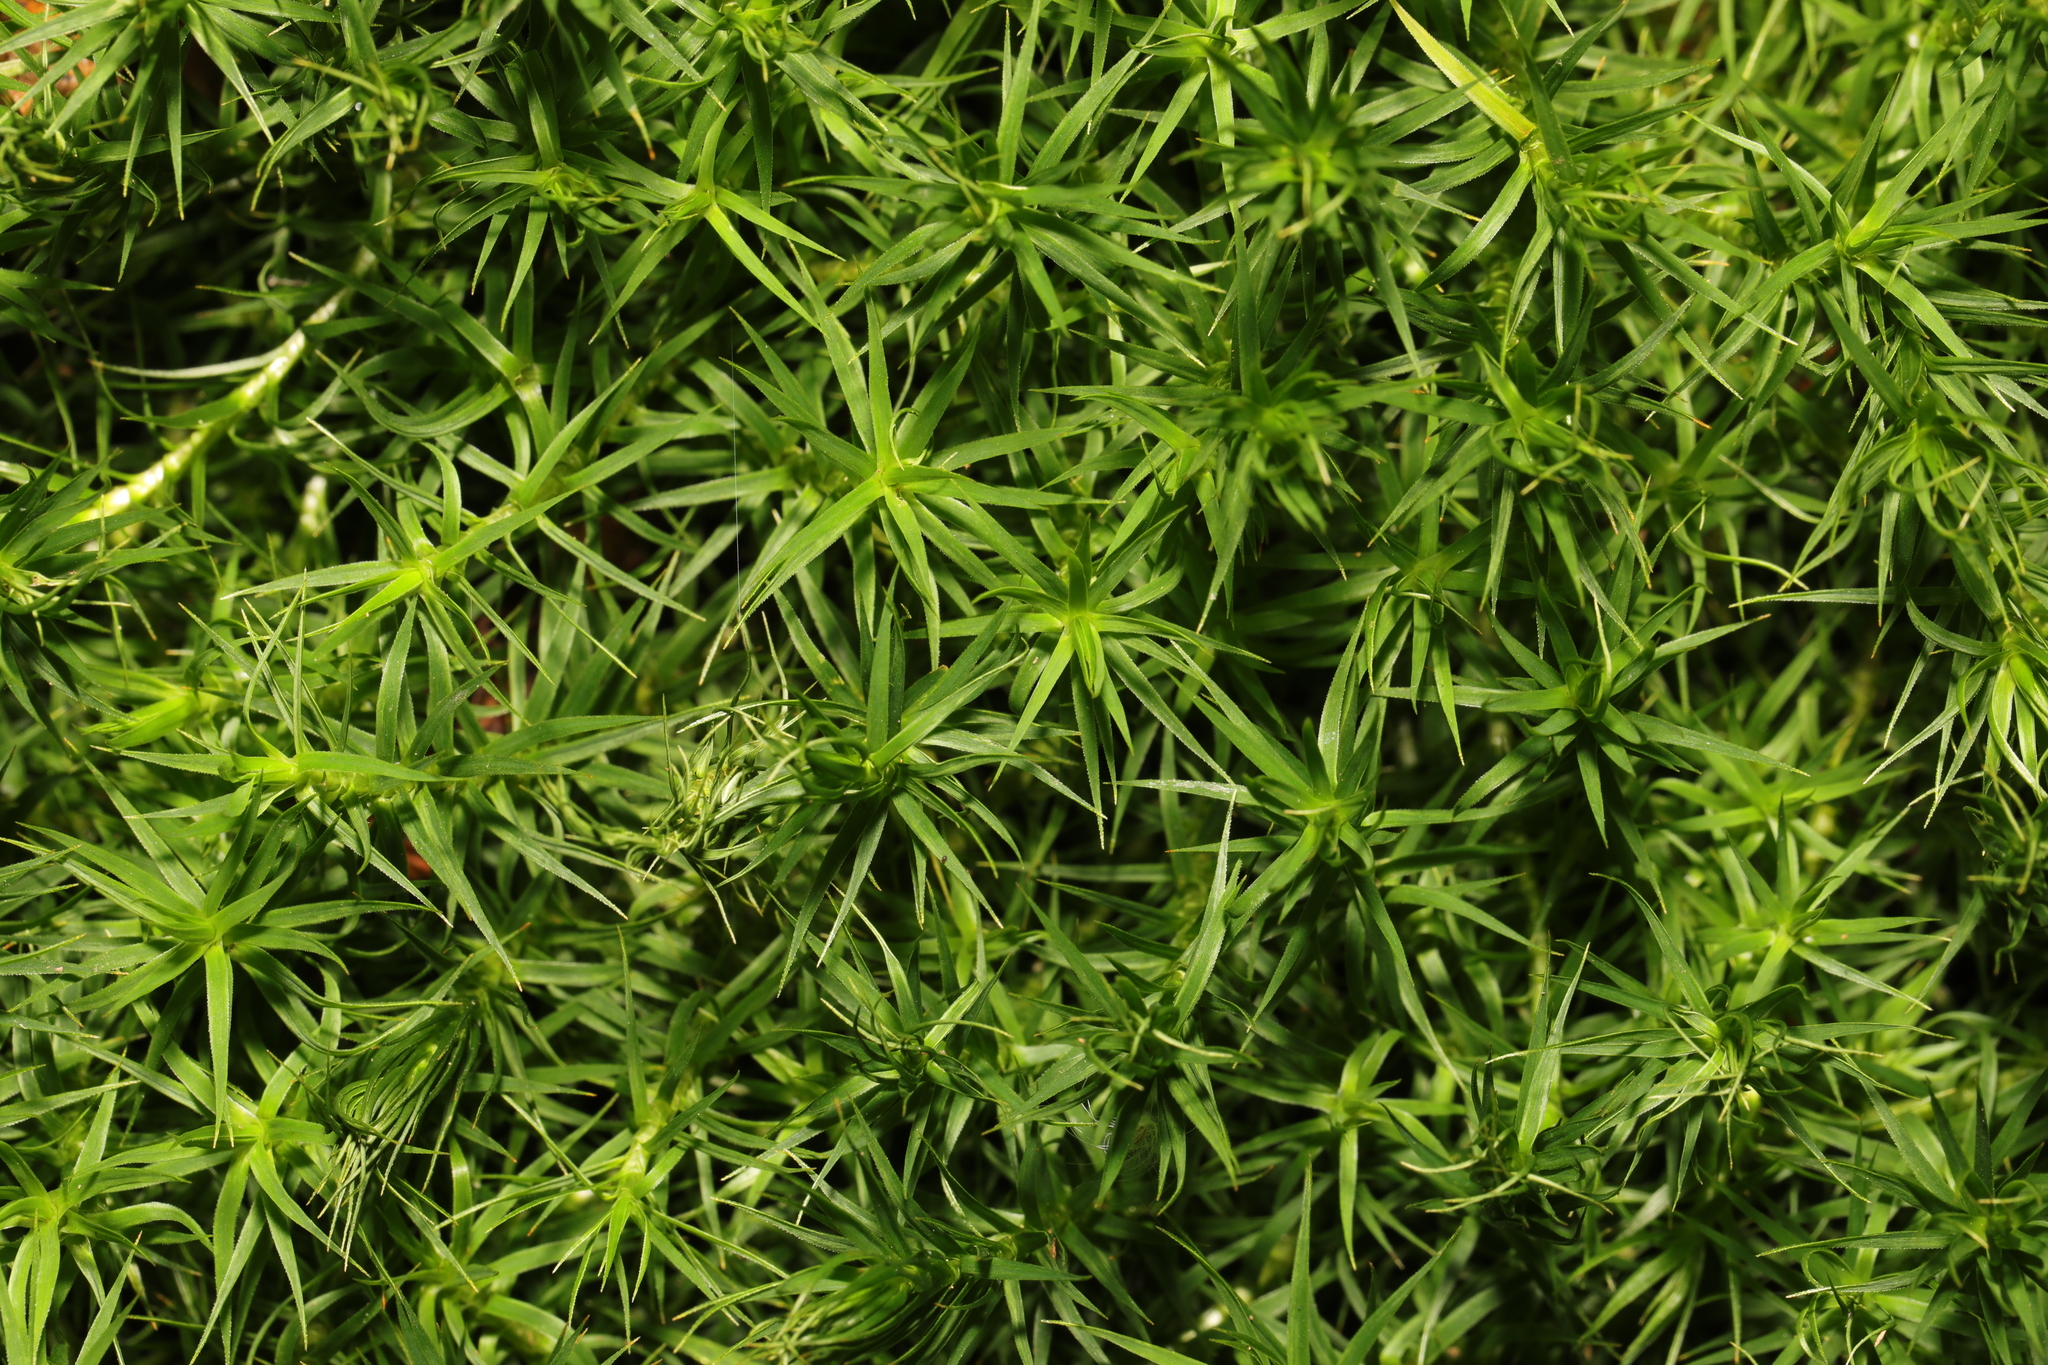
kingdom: Plantae
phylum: Bryophyta
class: Polytrichopsida
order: Polytrichales
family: Polytrichaceae
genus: Polytrichum
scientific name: Polytrichum commune
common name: Common haircap
